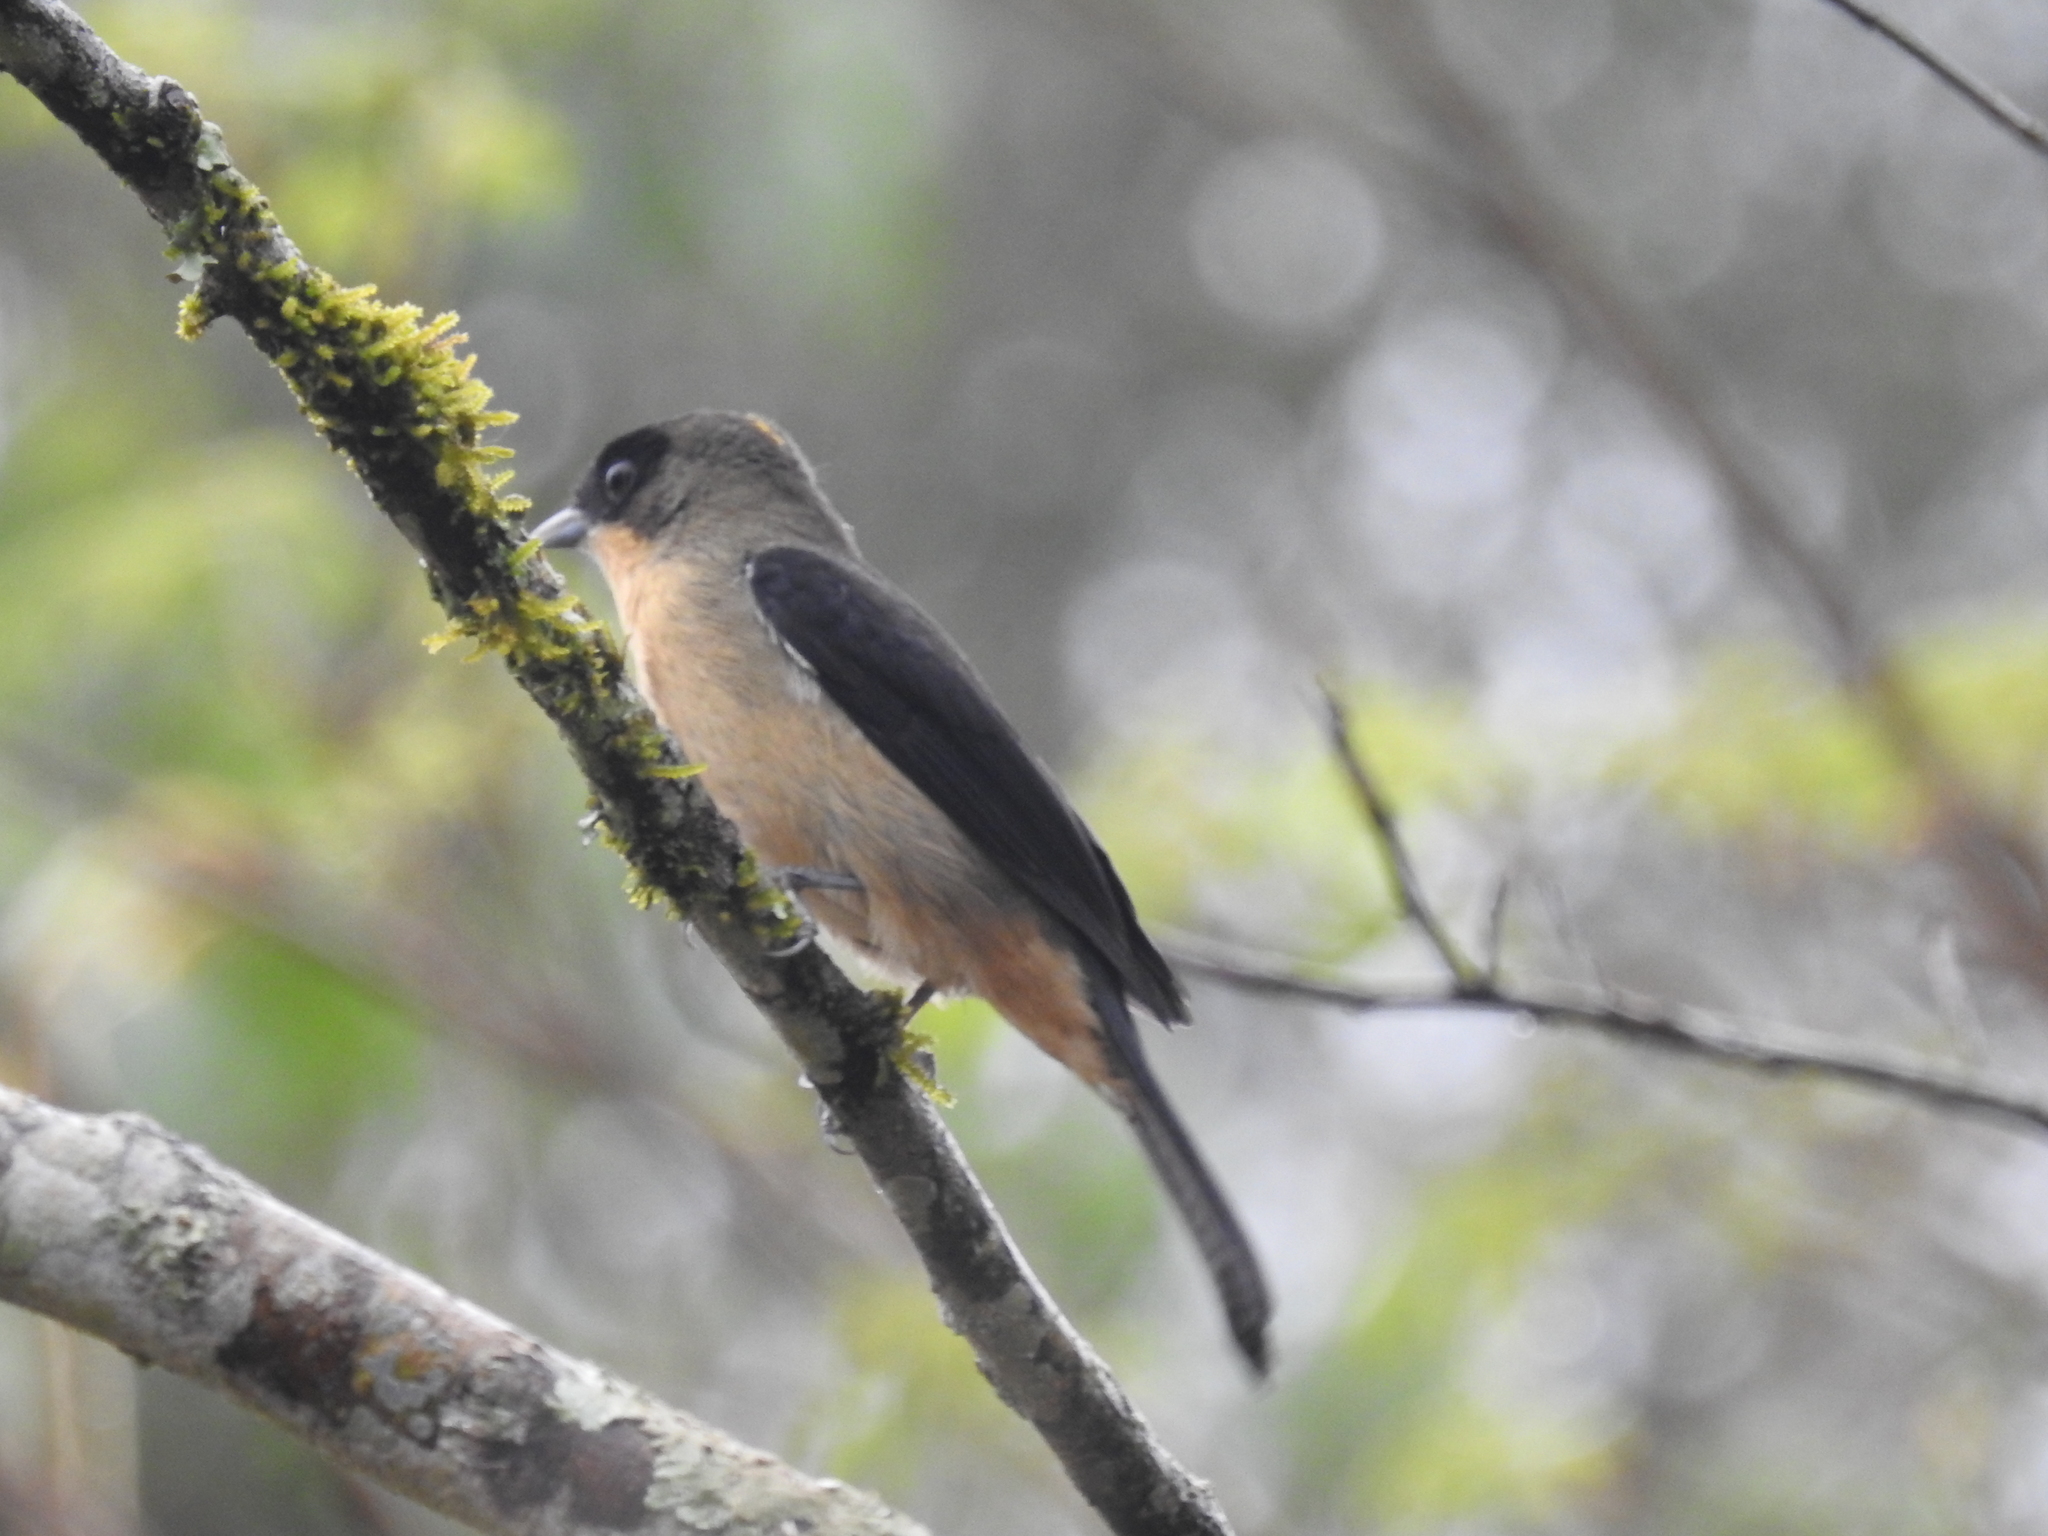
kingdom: Animalia
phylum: Chordata
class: Aves
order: Passeriformes
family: Thraupidae
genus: Trichothraupis
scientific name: Trichothraupis melanops
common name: Black-goggled tanager
